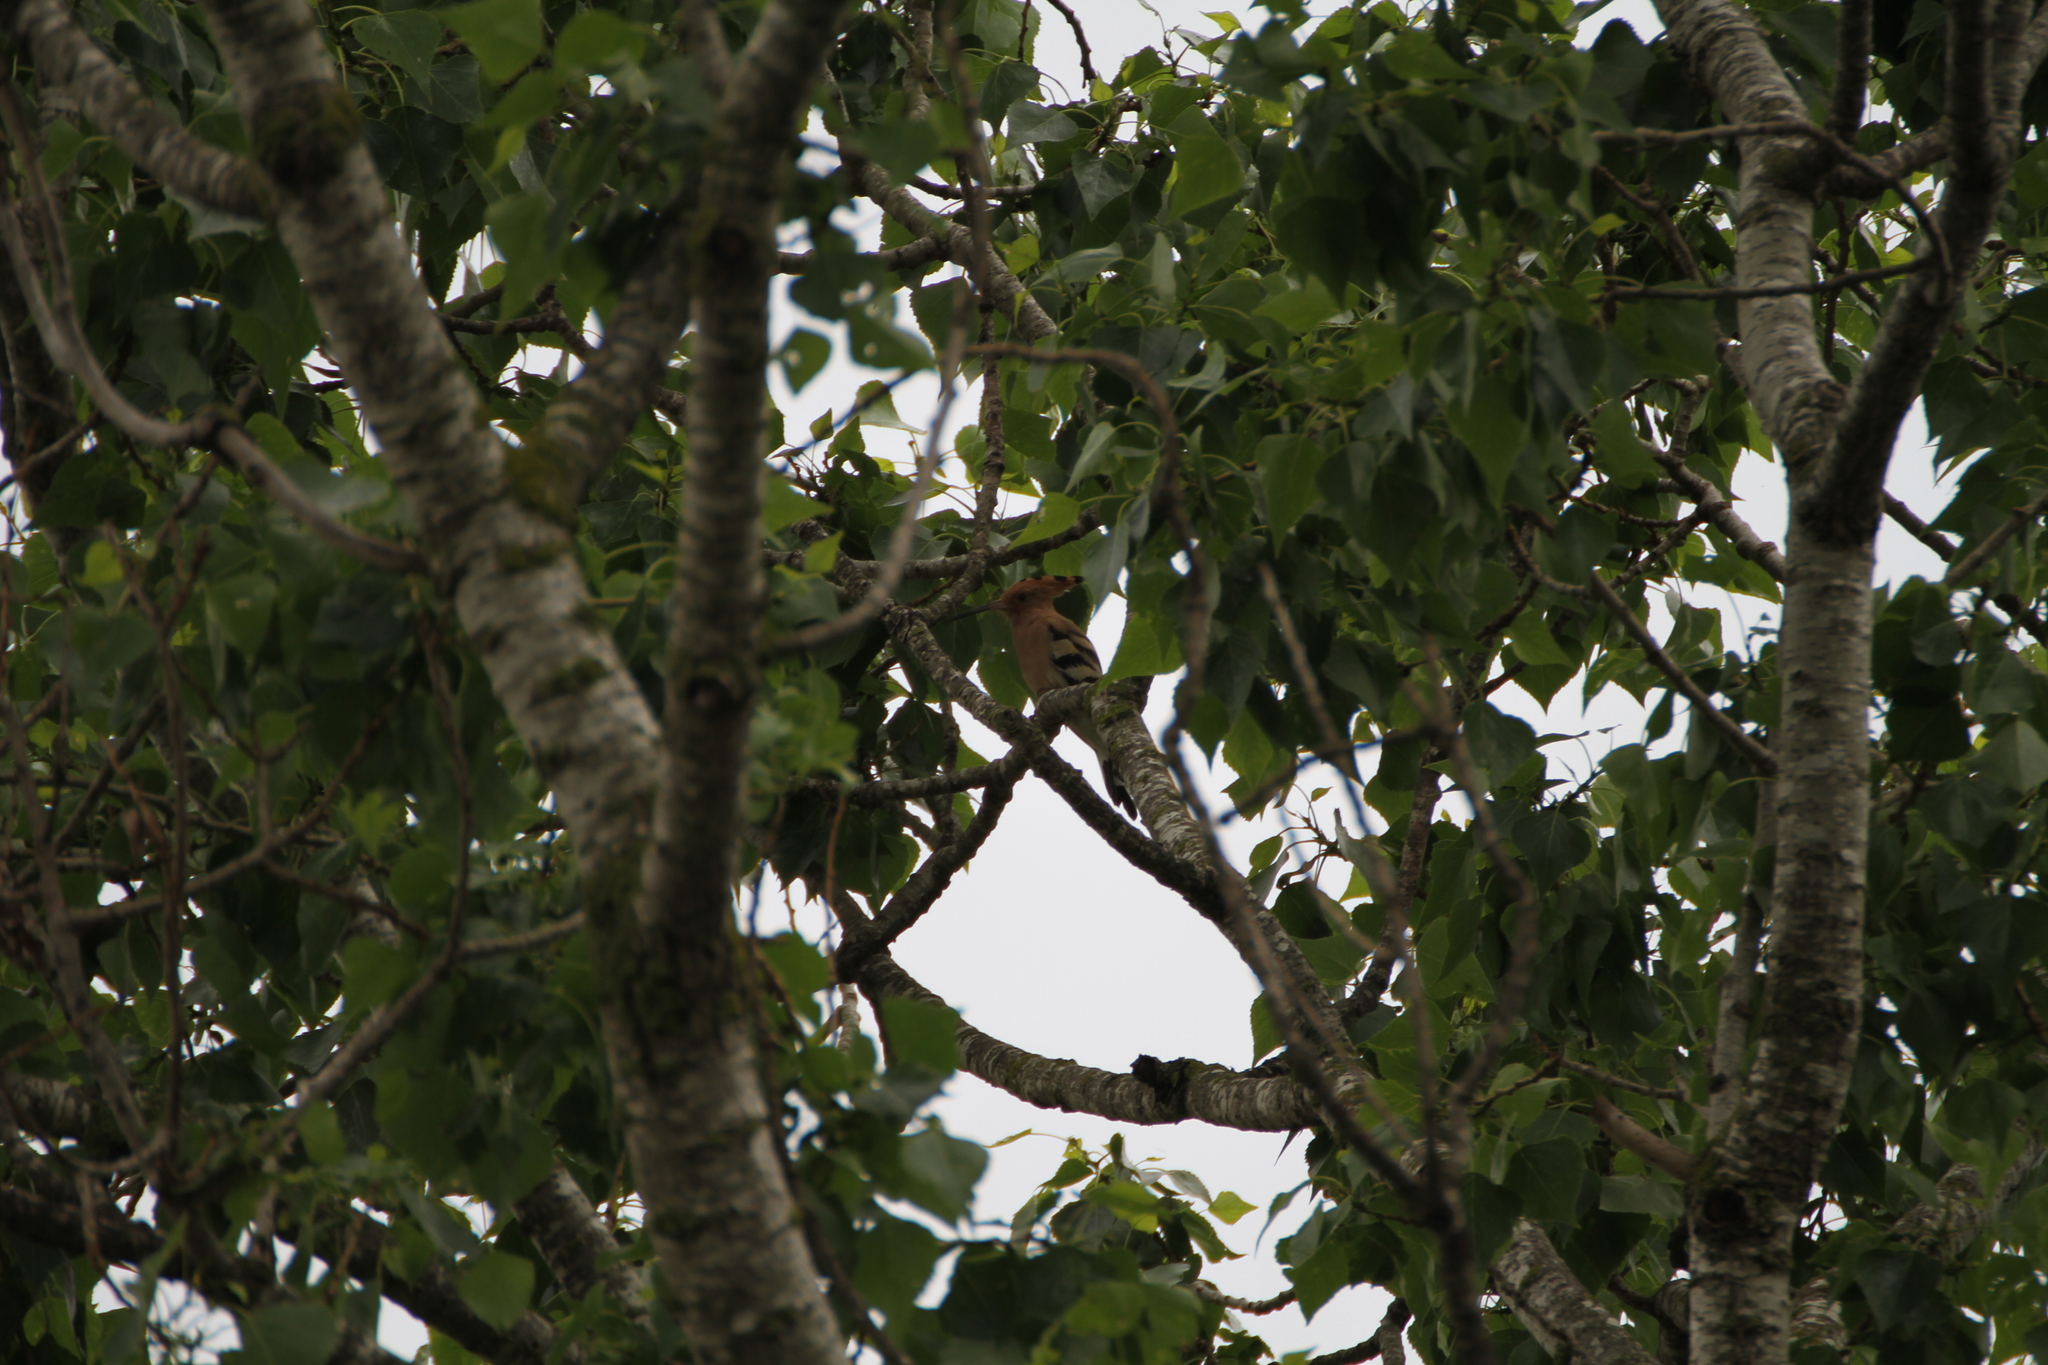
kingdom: Animalia
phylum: Chordata
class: Aves
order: Bucerotiformes
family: Upupidae
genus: Upupa
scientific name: Upupa epops
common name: Eurasian hoopoe
